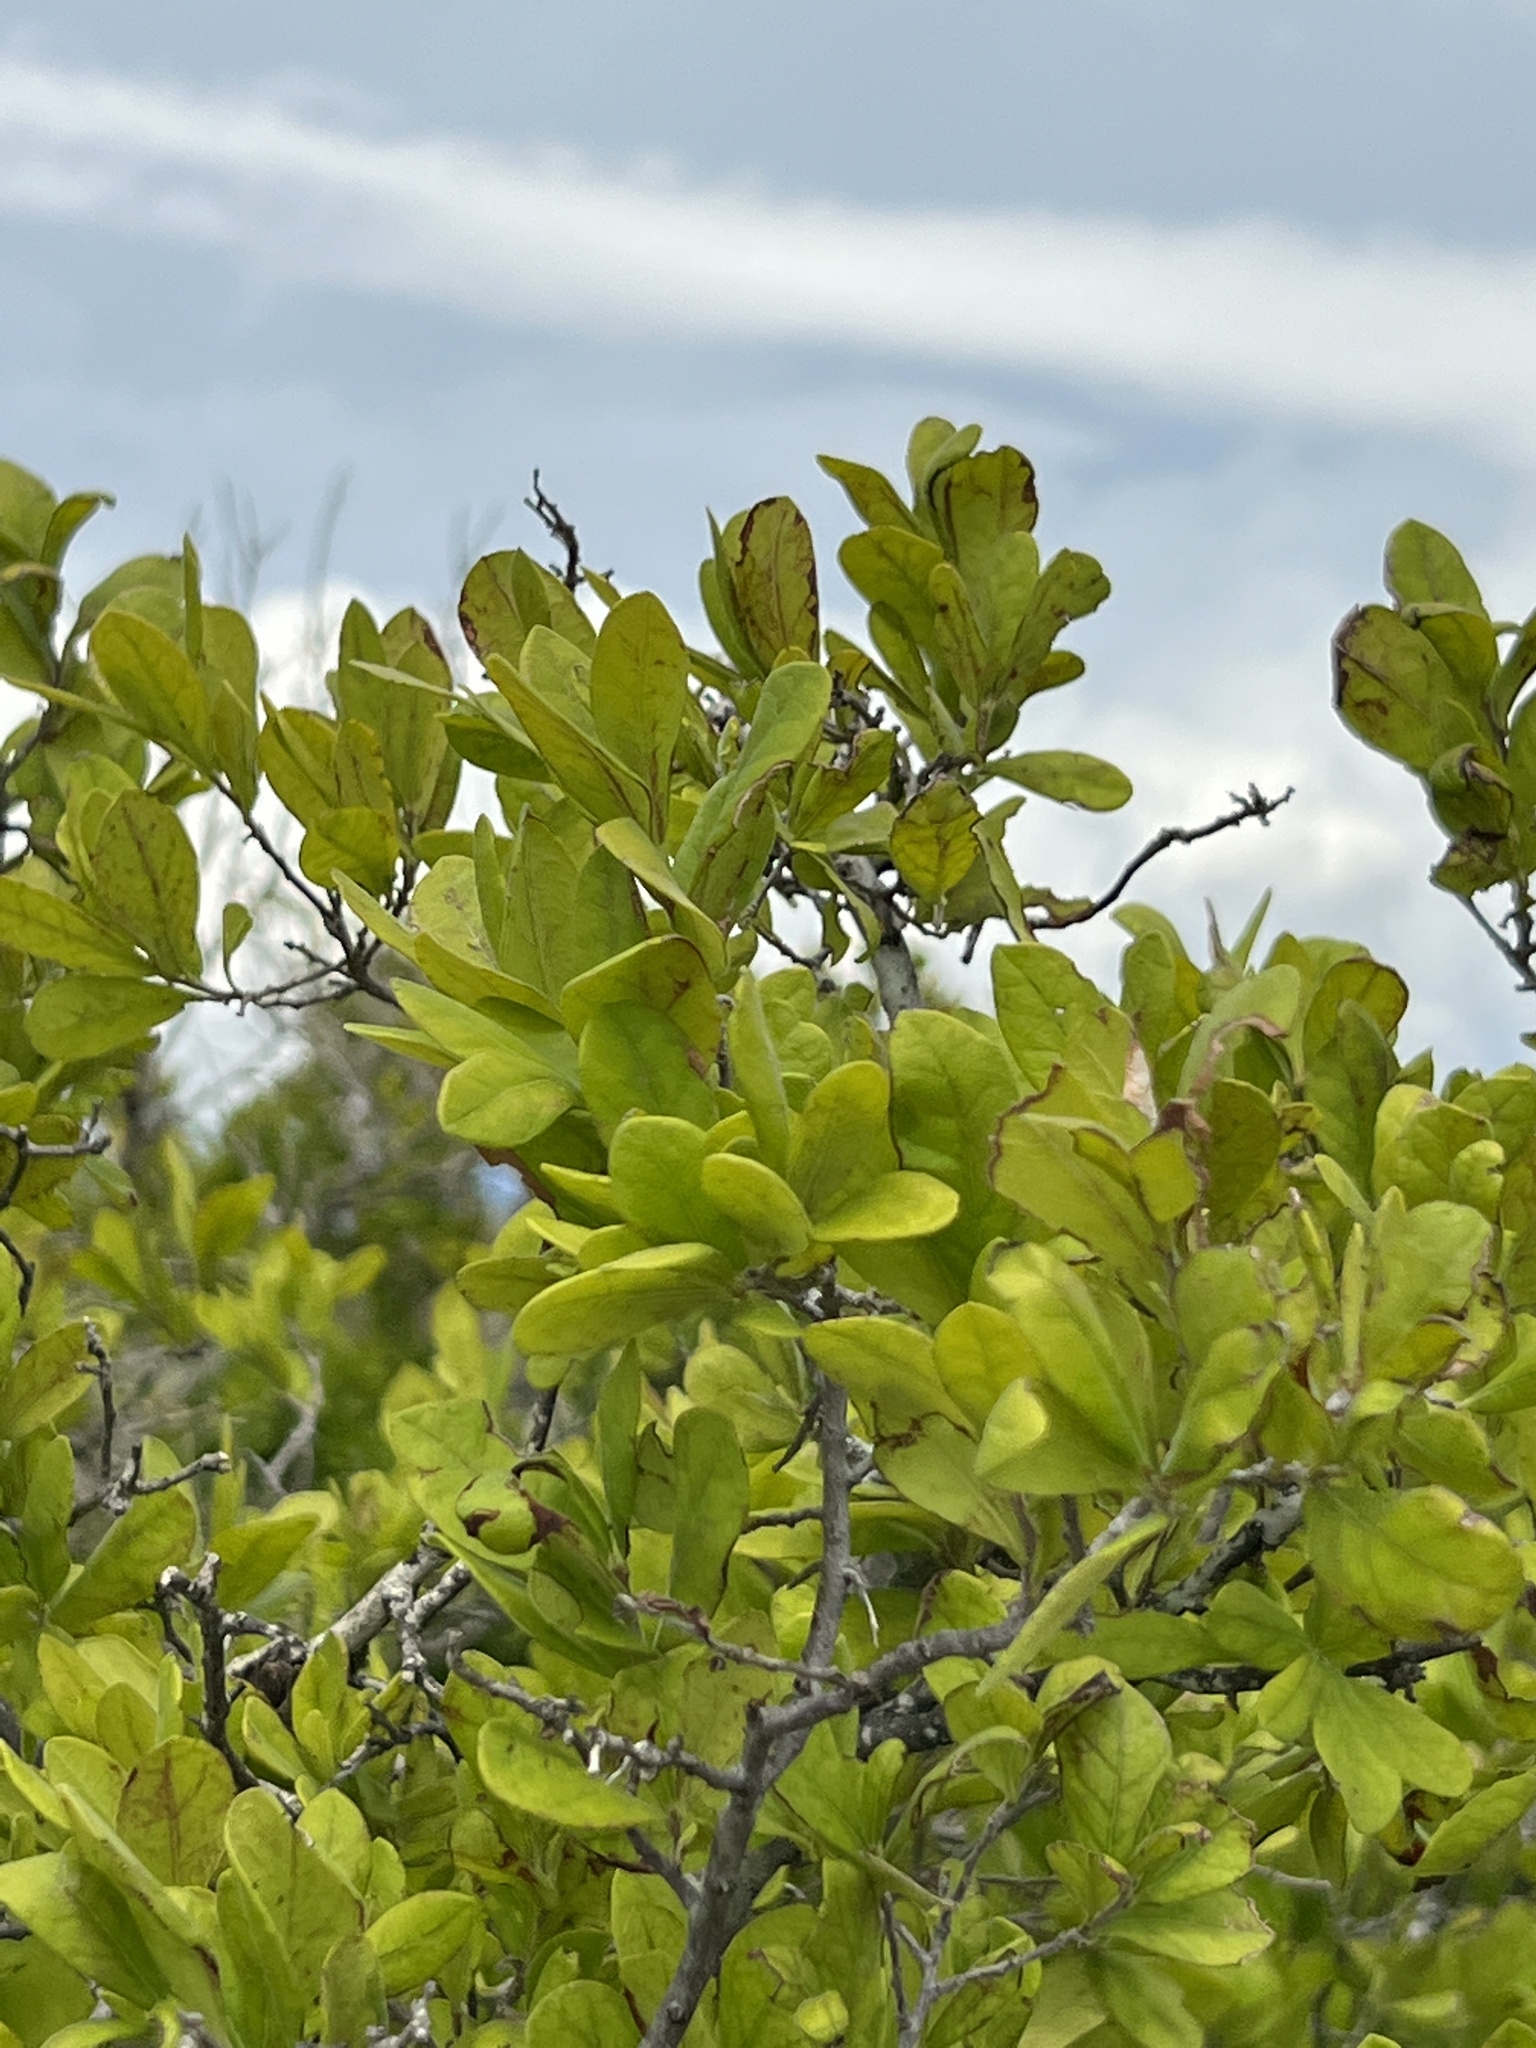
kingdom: Plantae
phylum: Tracheophyta
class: Magnoliopsida
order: Ericales
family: Ebenaceae
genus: Diospyros
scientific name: Diospyros texana
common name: Texas persimmon
